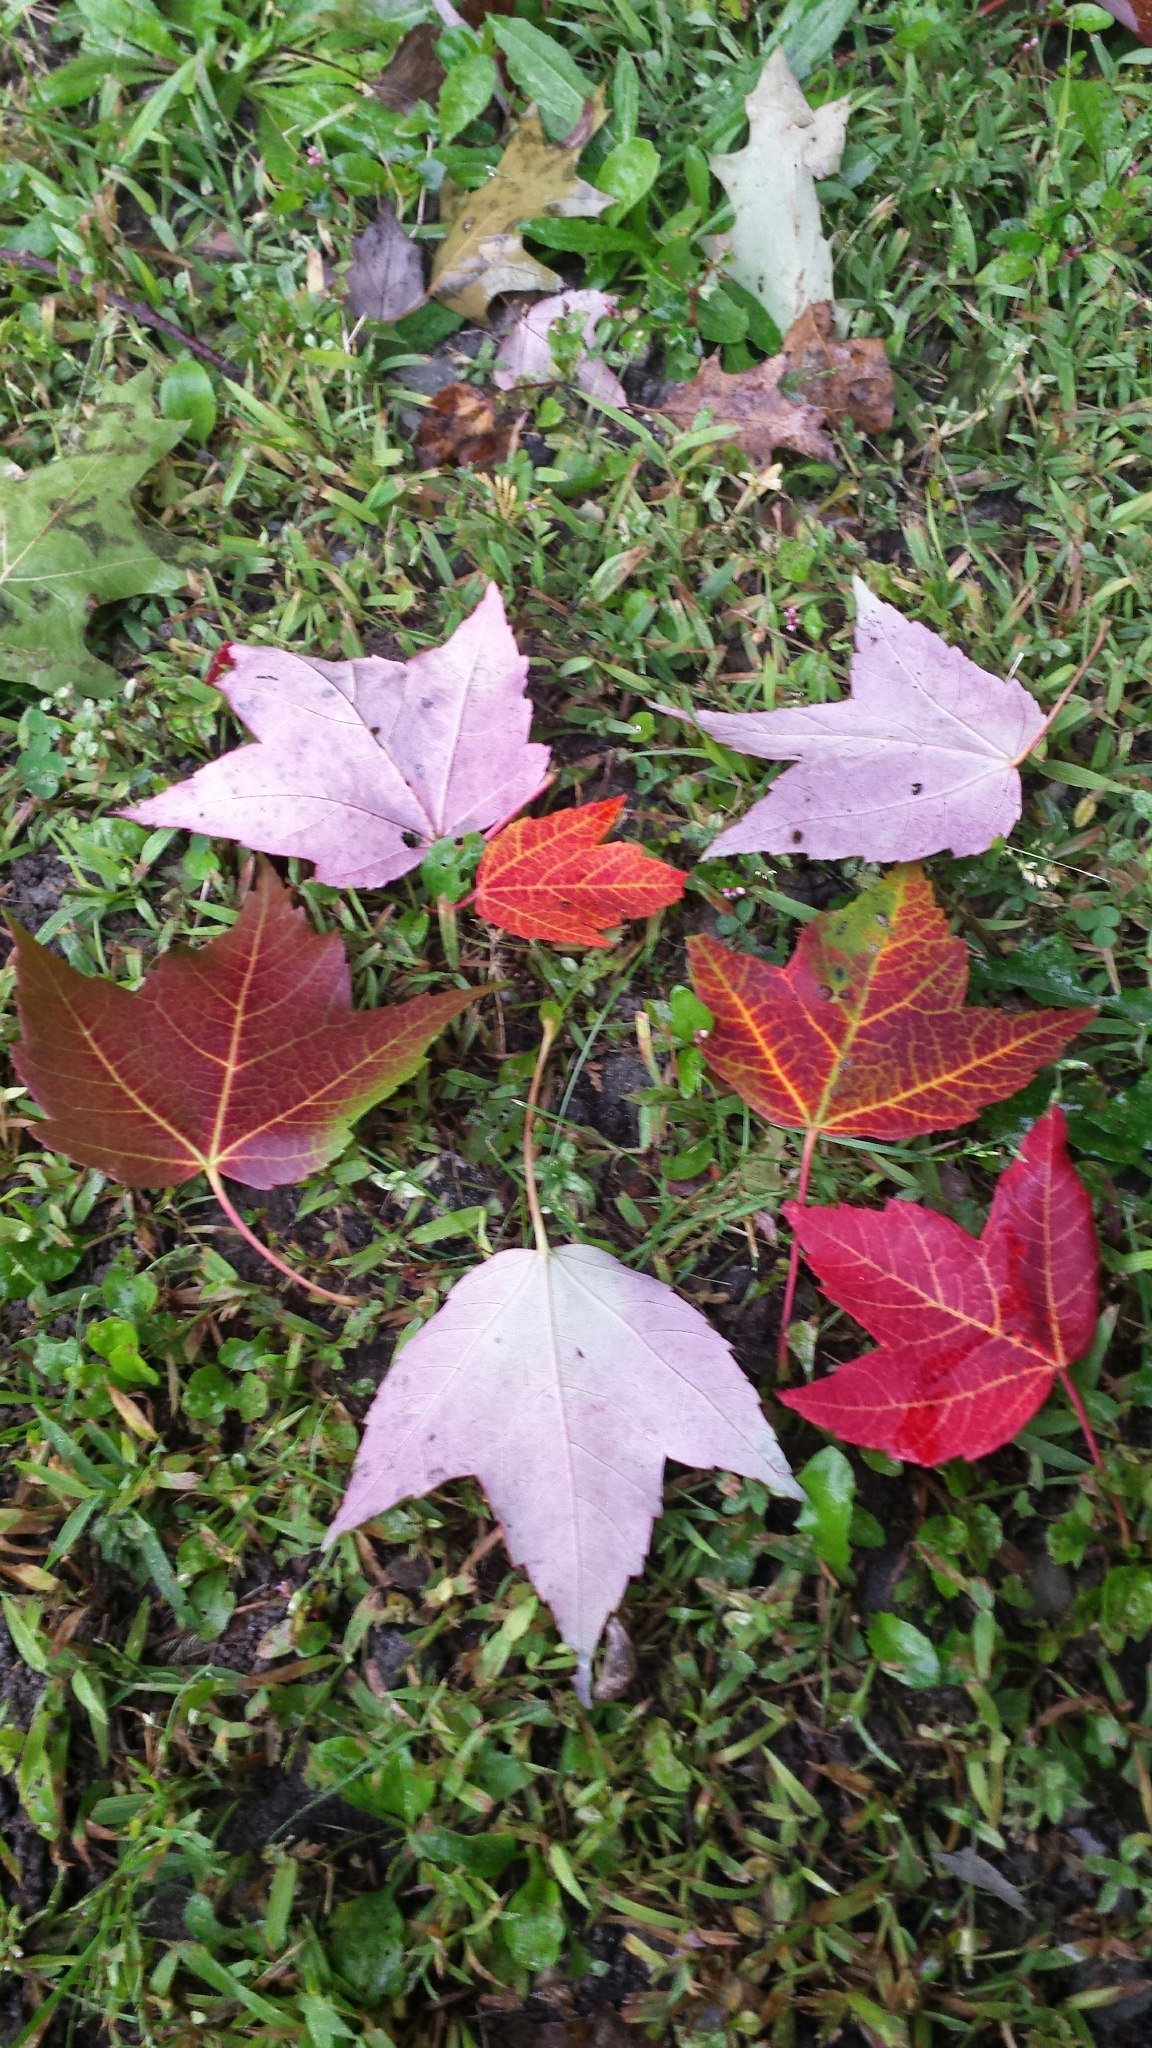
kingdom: Plantae
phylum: Tracheophyta
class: Magnoliopsida
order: Sapindales
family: Sapindaceae
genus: Acer
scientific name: Acer rubrum
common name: Red maple
